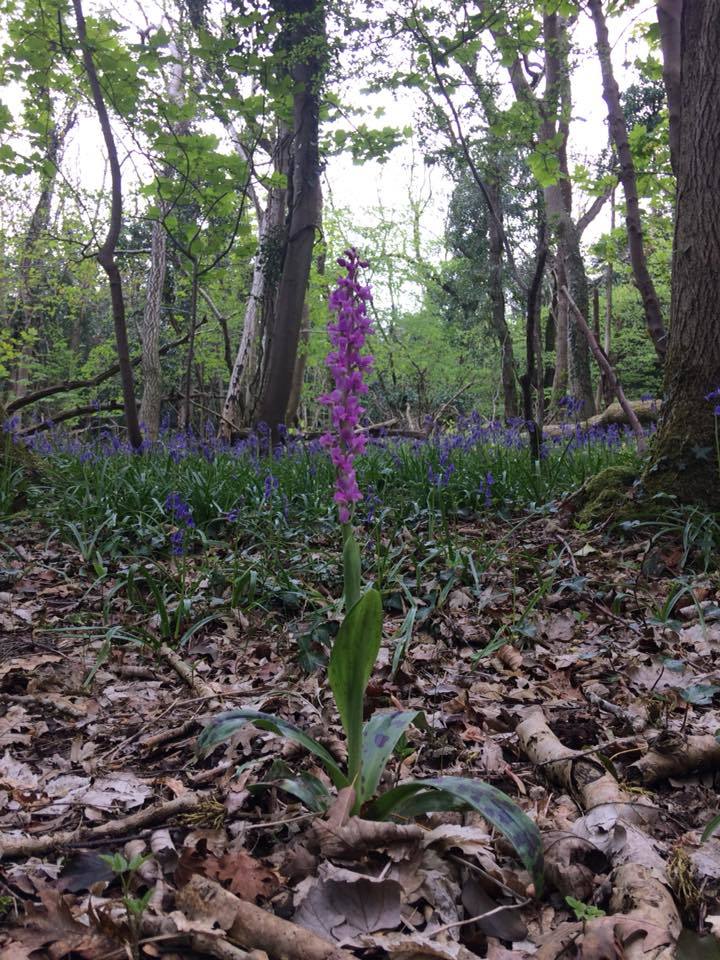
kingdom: Plantae
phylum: Tracheophyta
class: Liliopsida
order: Asparagales
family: Orchidaceae
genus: Orchis
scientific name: Orchis mascula
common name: Early-purple orchid
